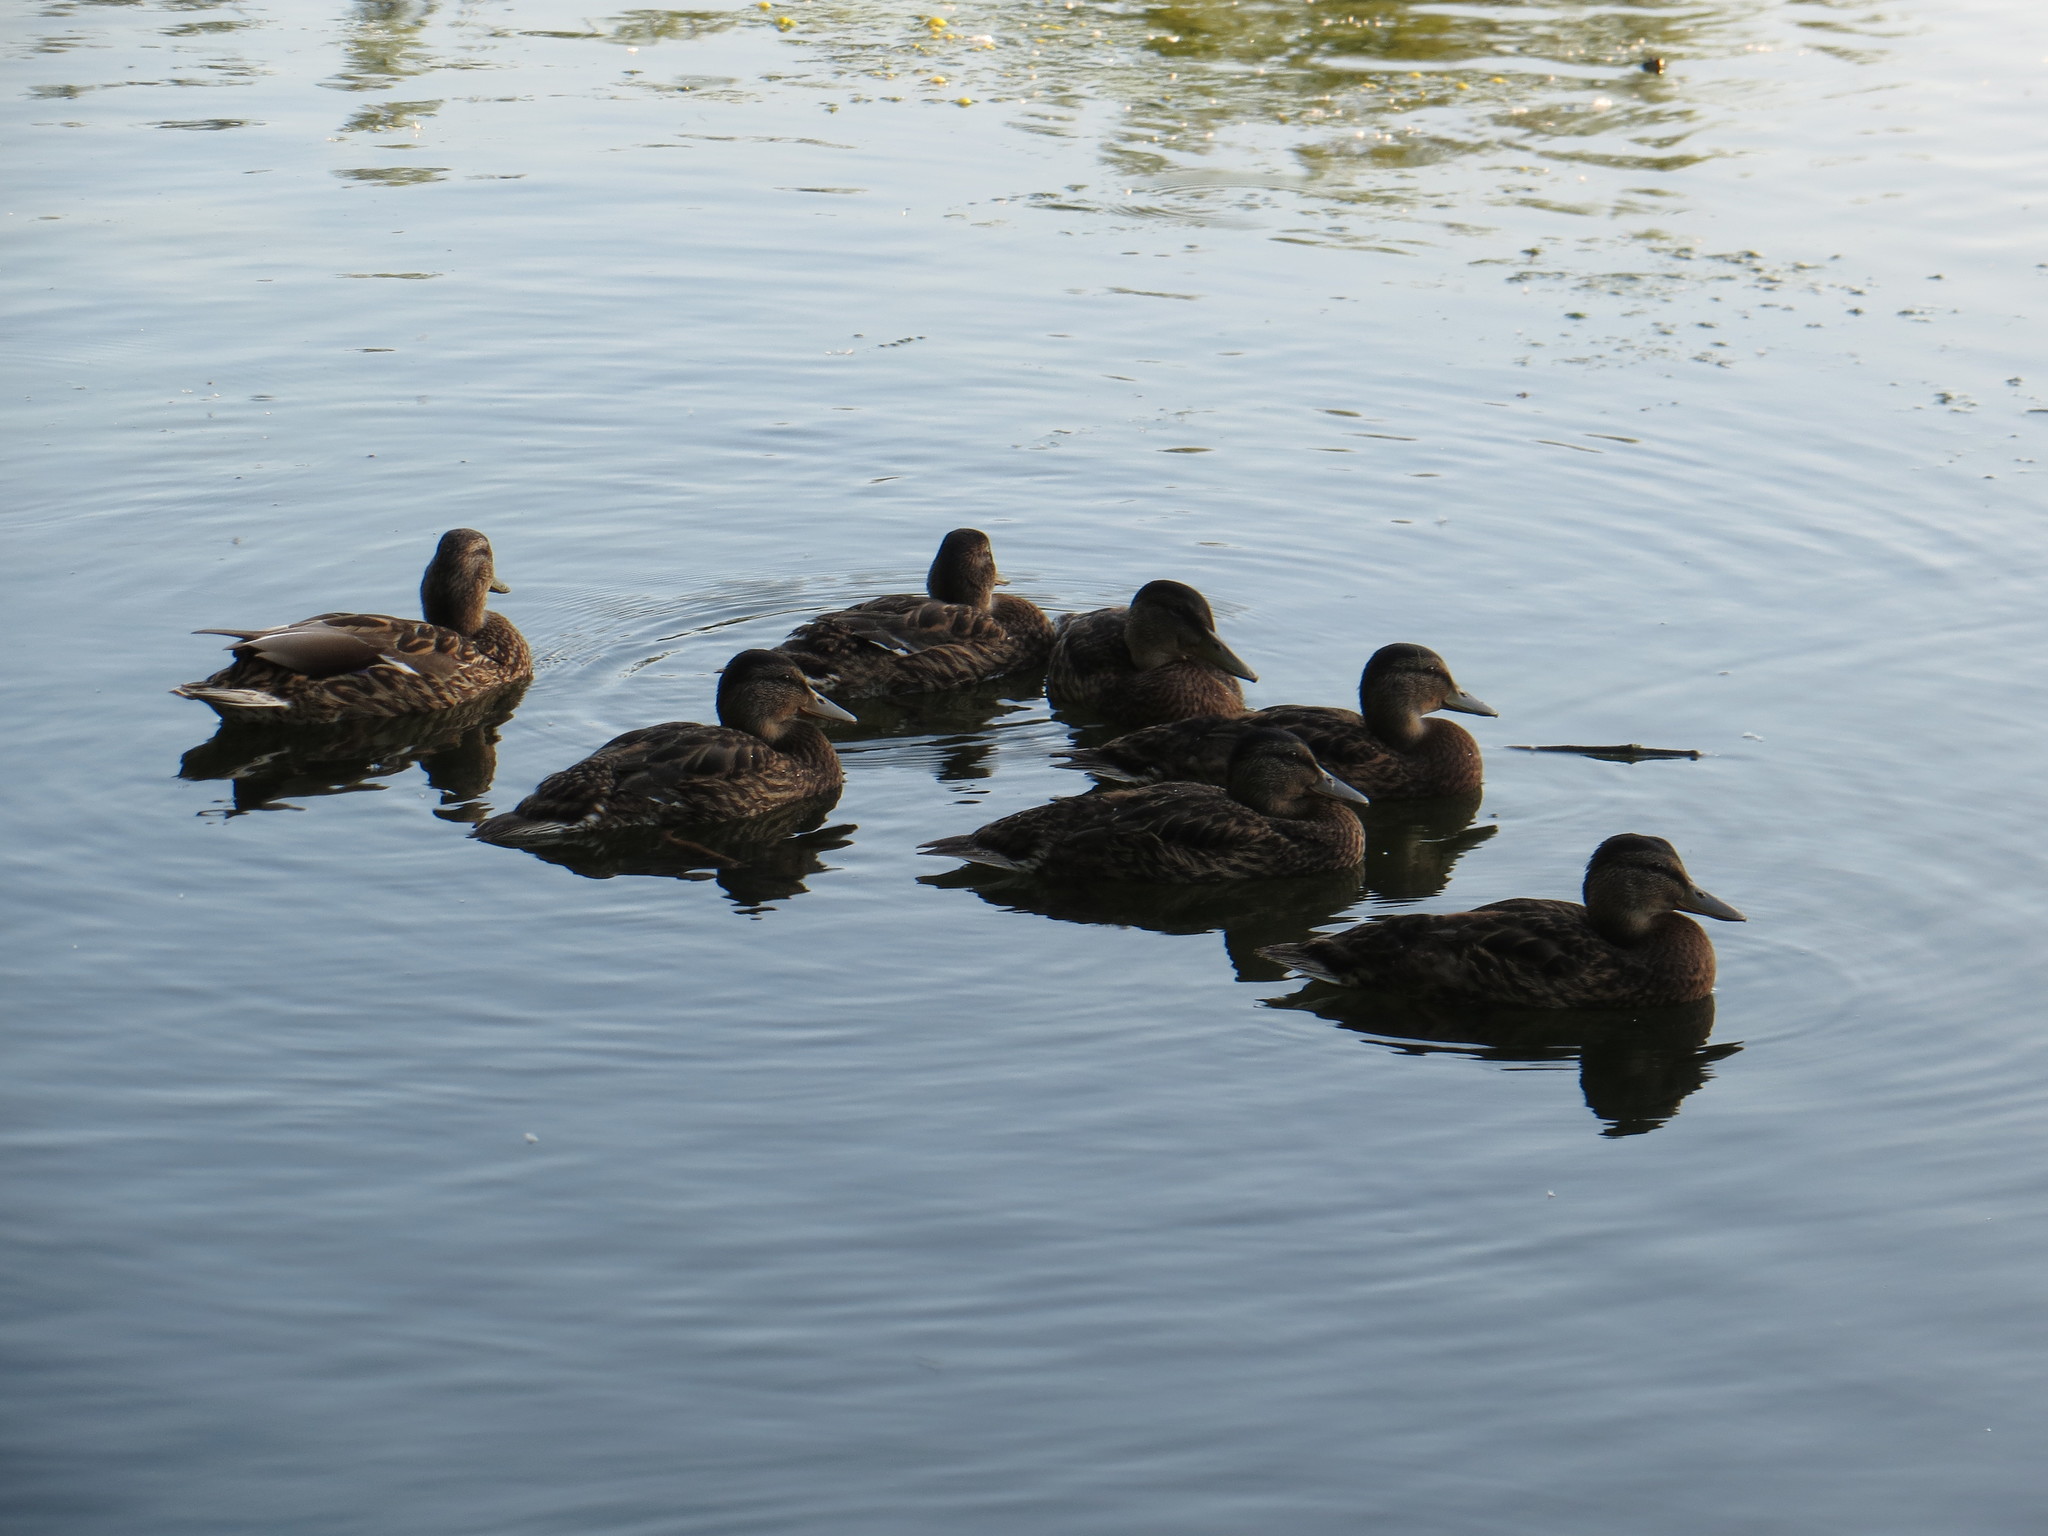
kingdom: Animalia
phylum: Chordata
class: Aves
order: Anseriformes
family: Anatidae
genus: Anas
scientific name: Anas platyrhynchos
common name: Mallard
